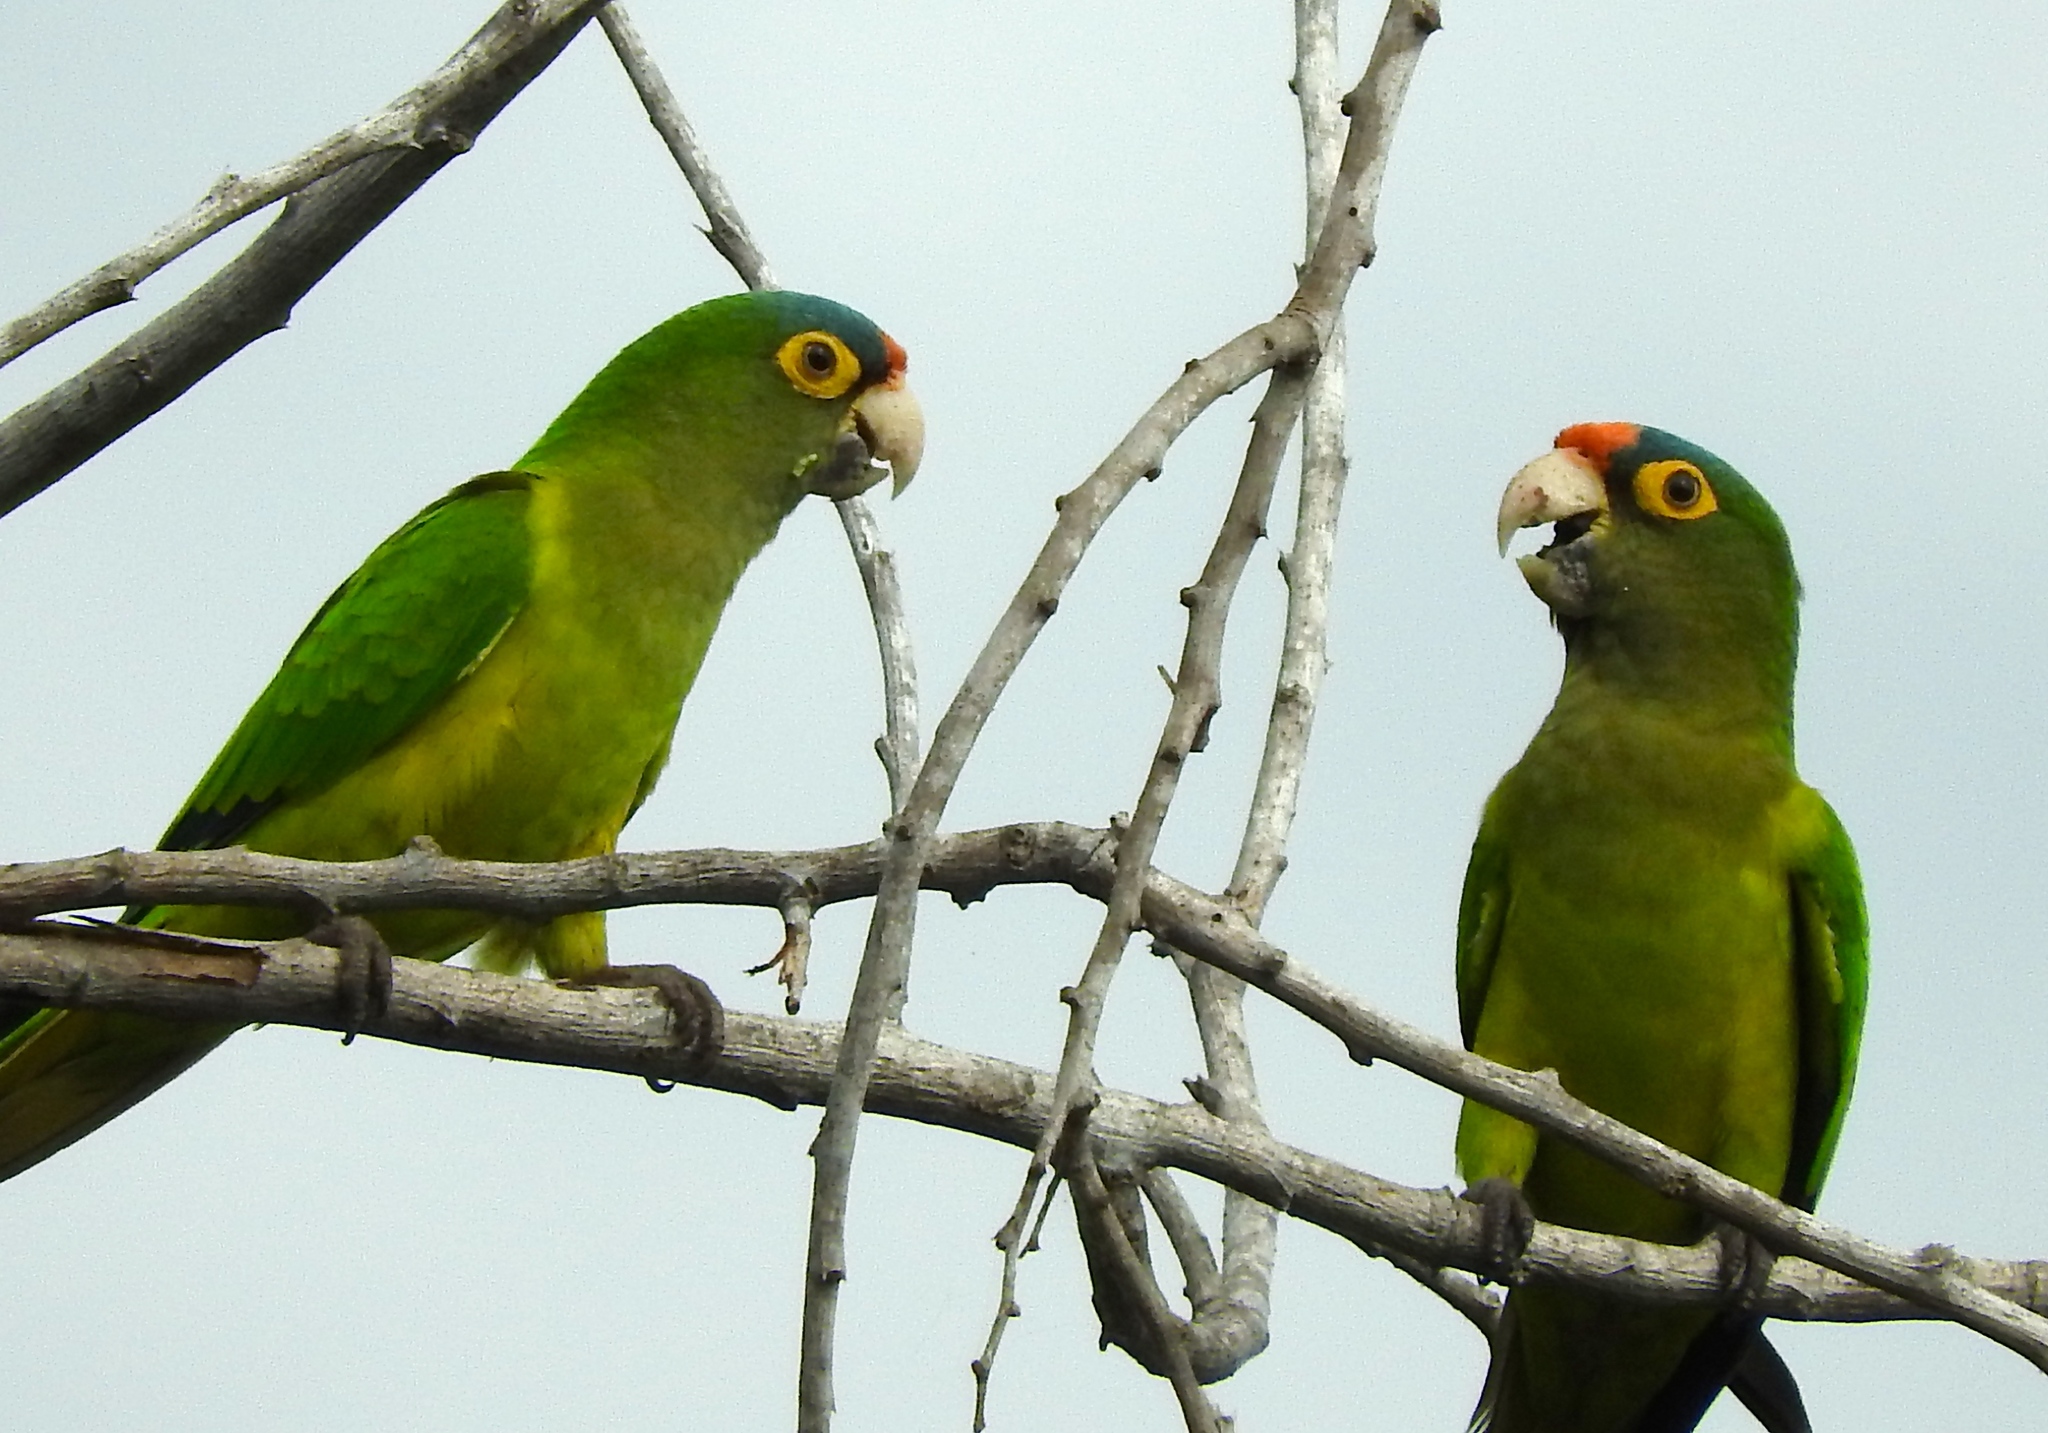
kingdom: Animalia
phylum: Chordata
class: Aves
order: Psittaciformes
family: Psittacidae
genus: Aratinga
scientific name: Aratinga canicularis
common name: Orange-fronted parakeet
